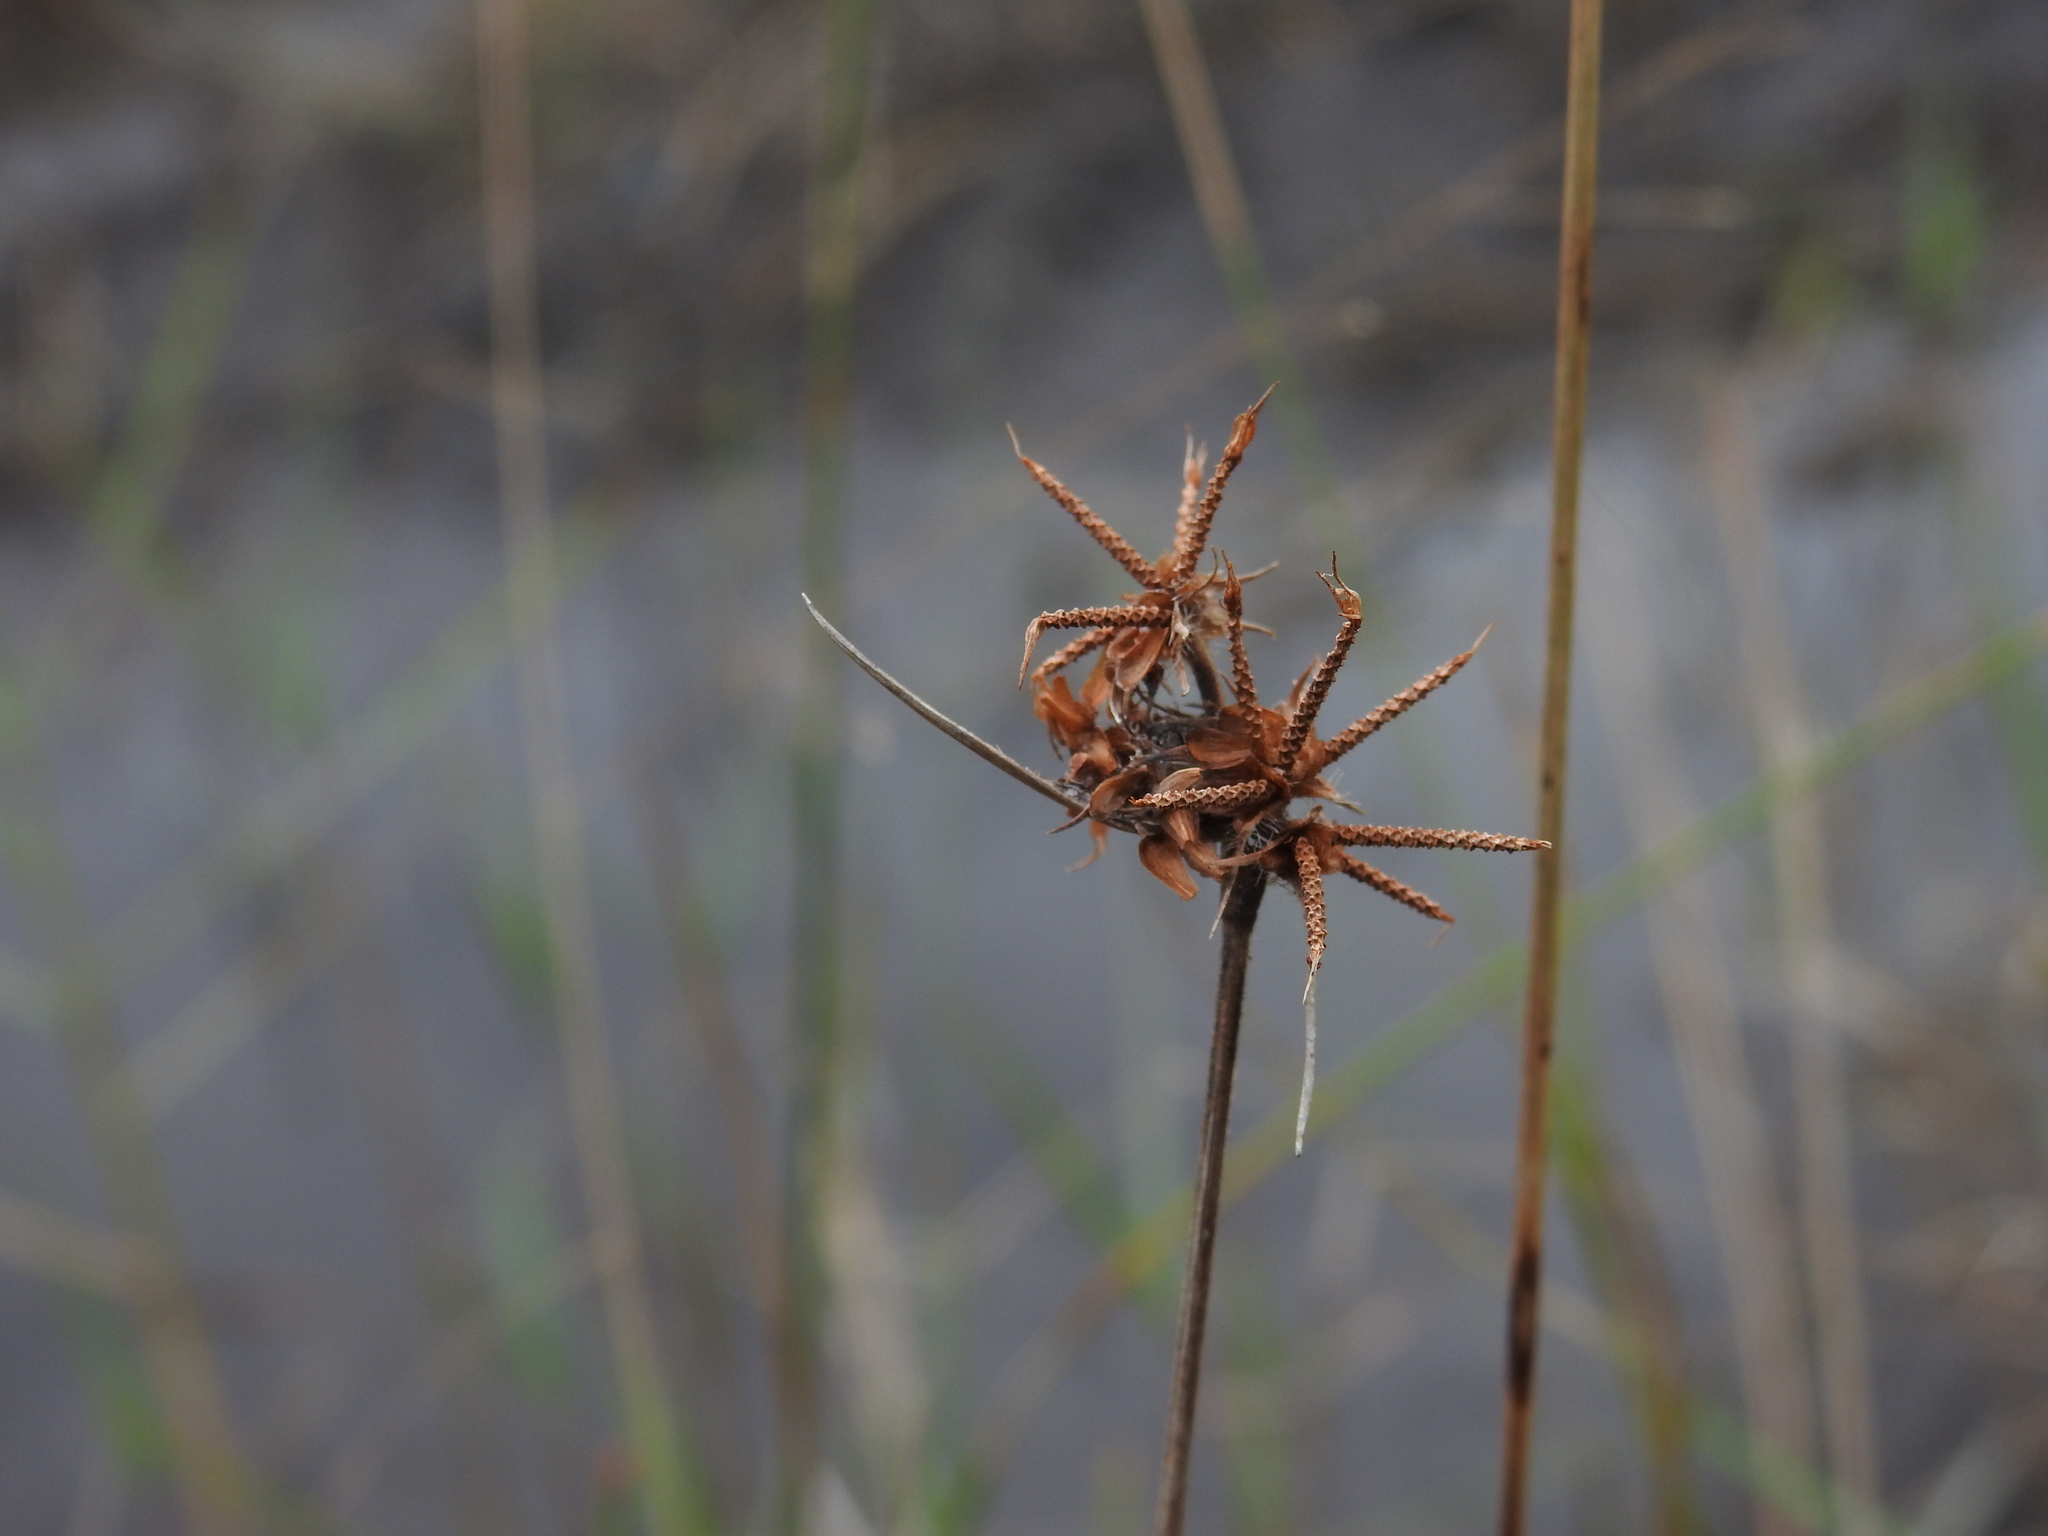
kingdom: Plantae
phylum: Tracheophyta
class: Liliopsida
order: Poales
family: Cyperaceae
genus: Fuirena
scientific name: Fuirena breviseta
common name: Saltmarsh umbrella sedge
